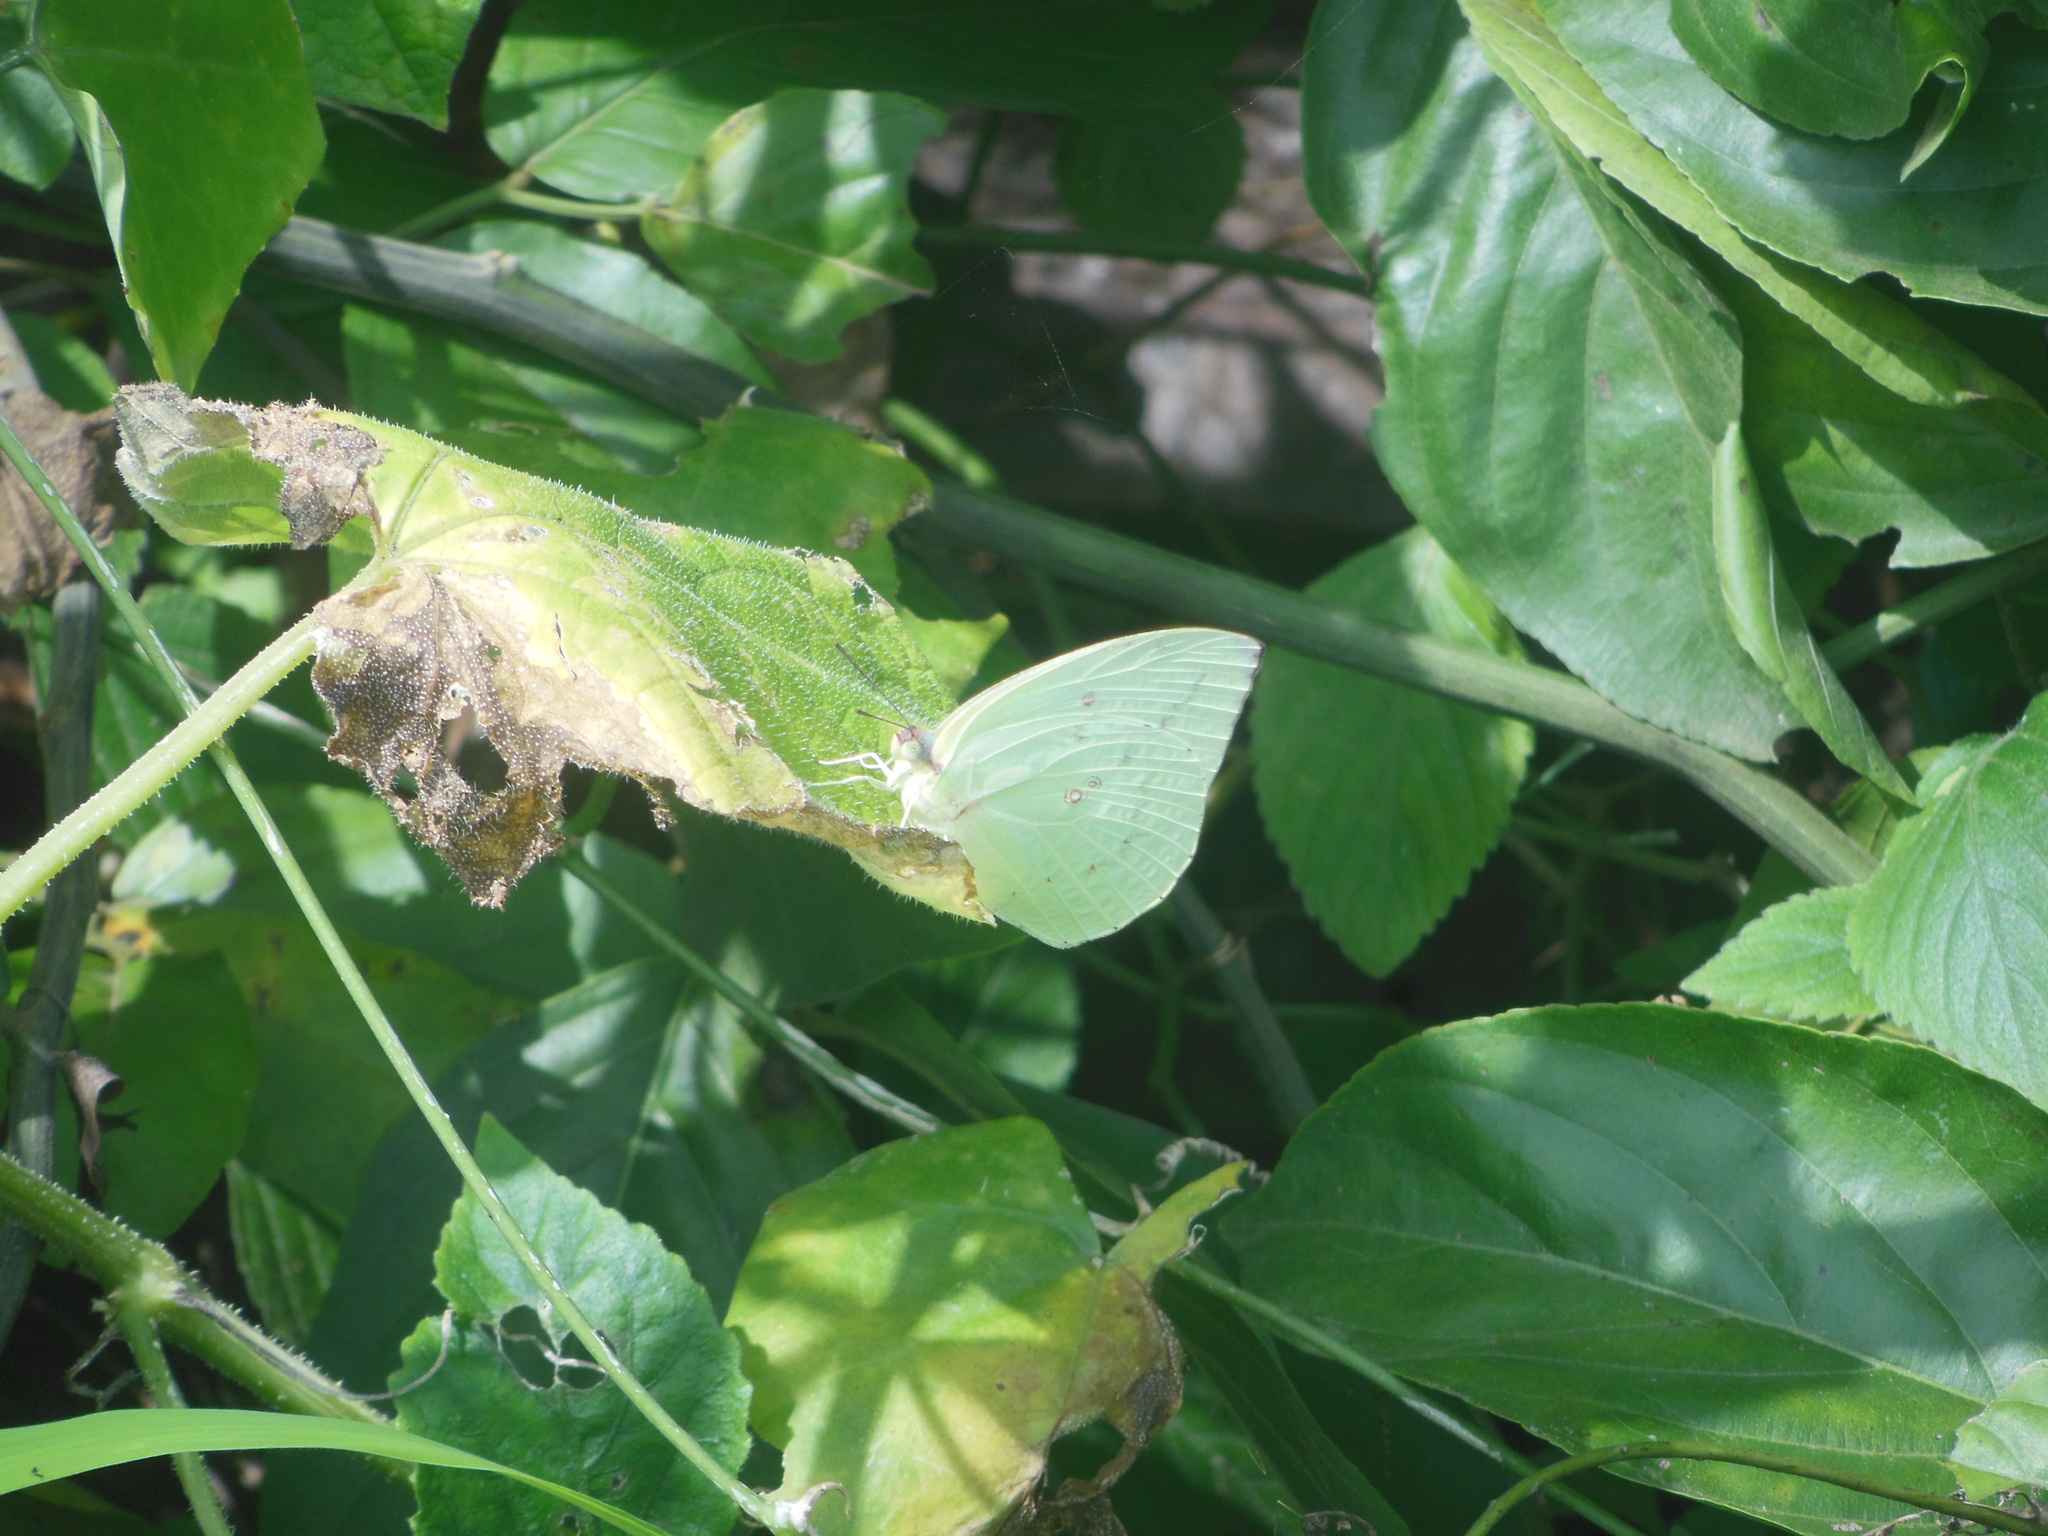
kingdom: Animalia
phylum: Arthropoda
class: Insecta
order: Lepidoptera
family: Pieridae
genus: Catopsilia
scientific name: Catopsilia pyranthe
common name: Mottled emigrant
